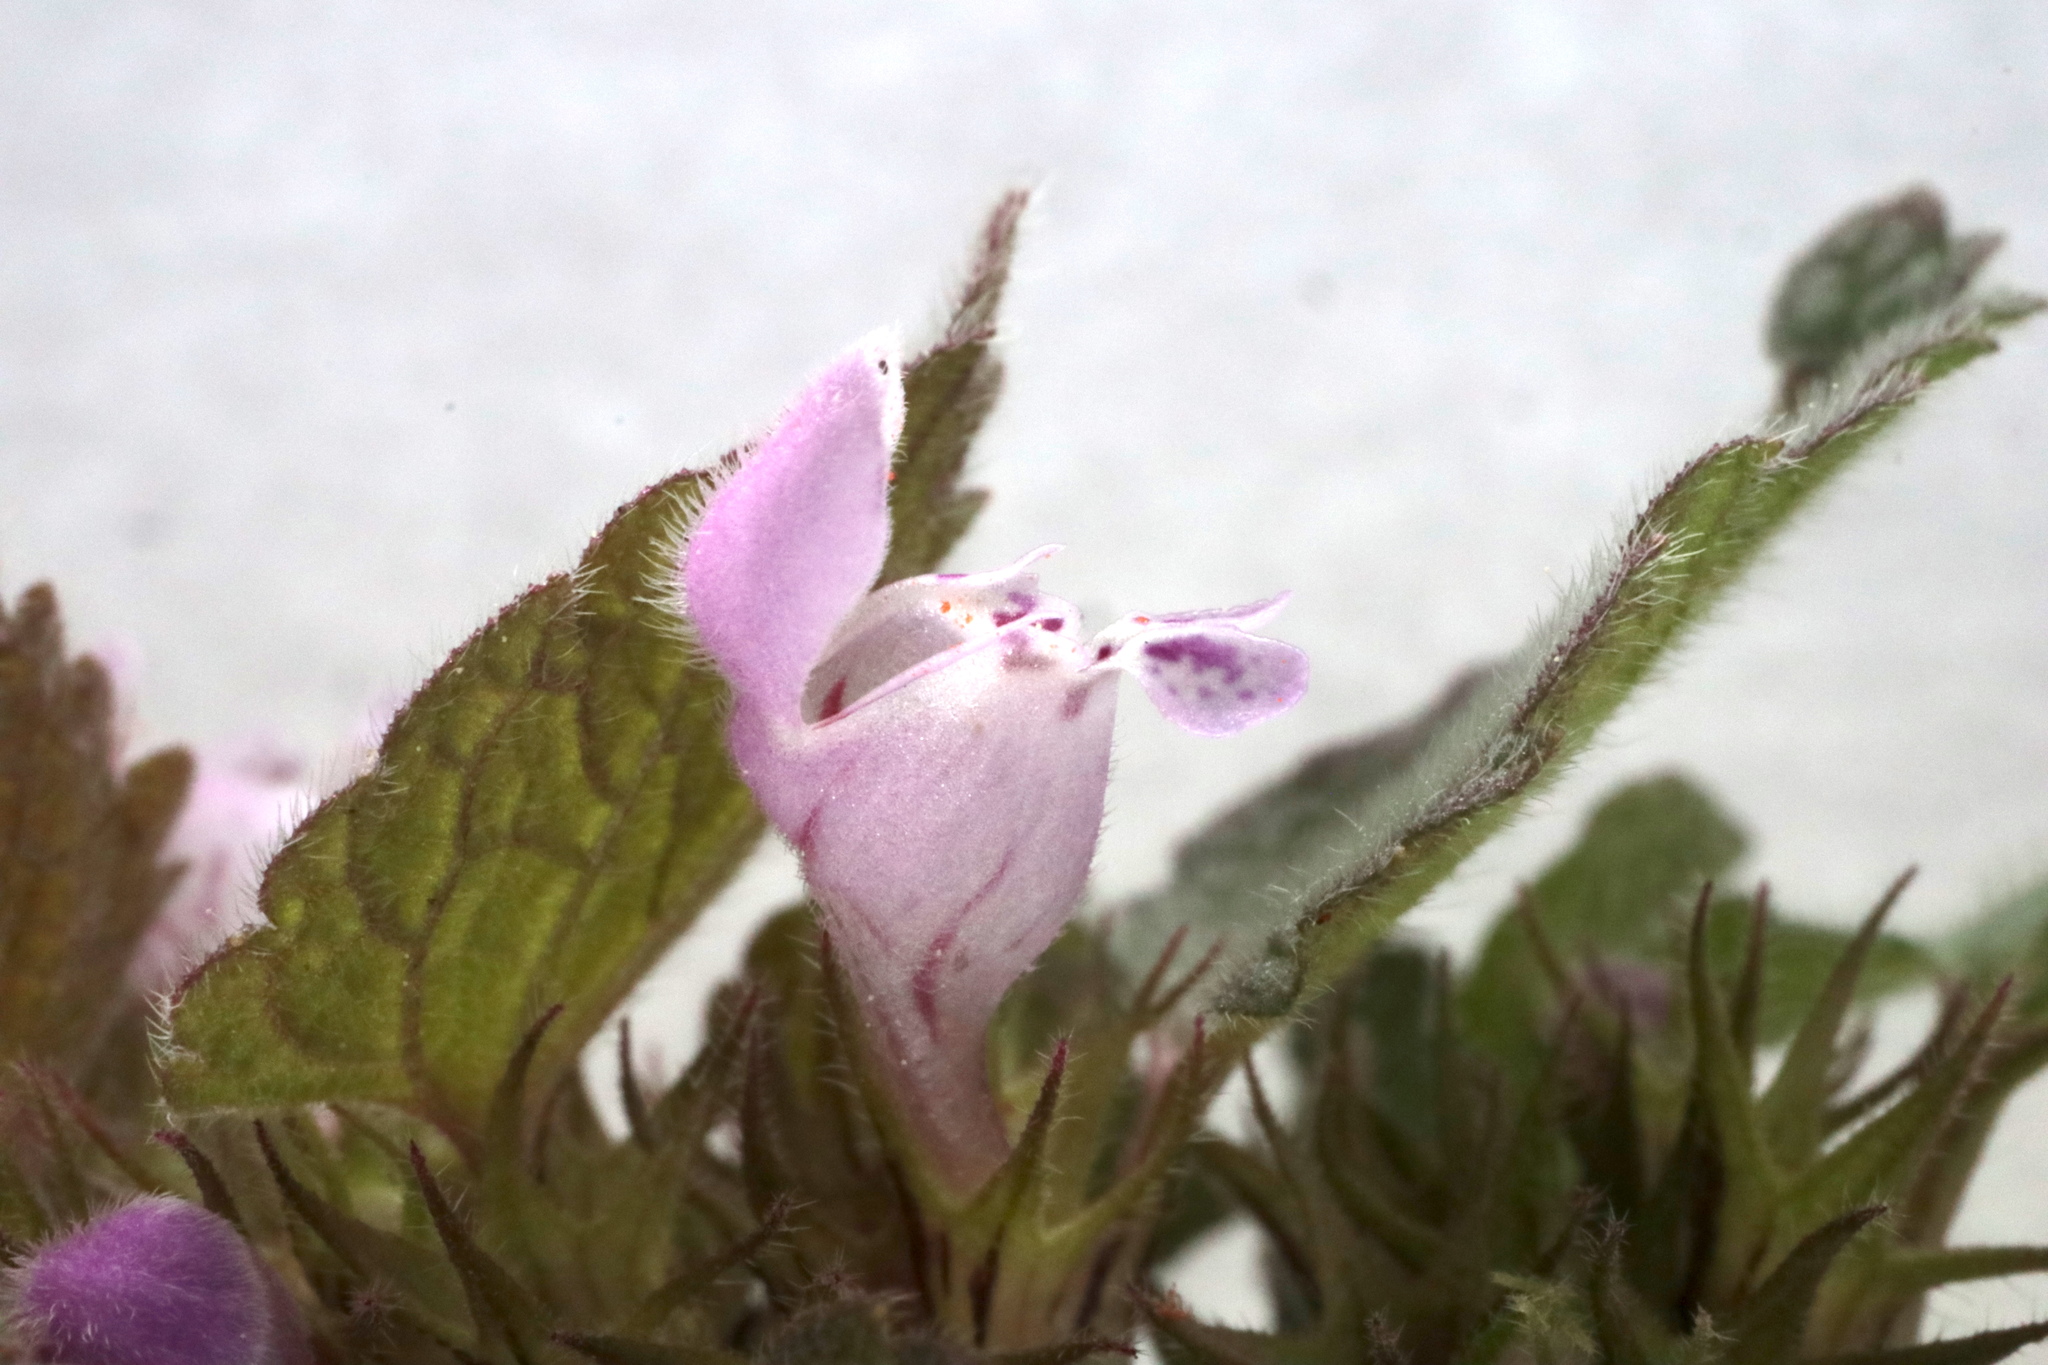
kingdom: Plantae
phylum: Tracheophyta
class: Magnoliopsida
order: Lamiales
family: Lamiaceae
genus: Lamium
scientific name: Lamium purpureum
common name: Red dead-nettle
